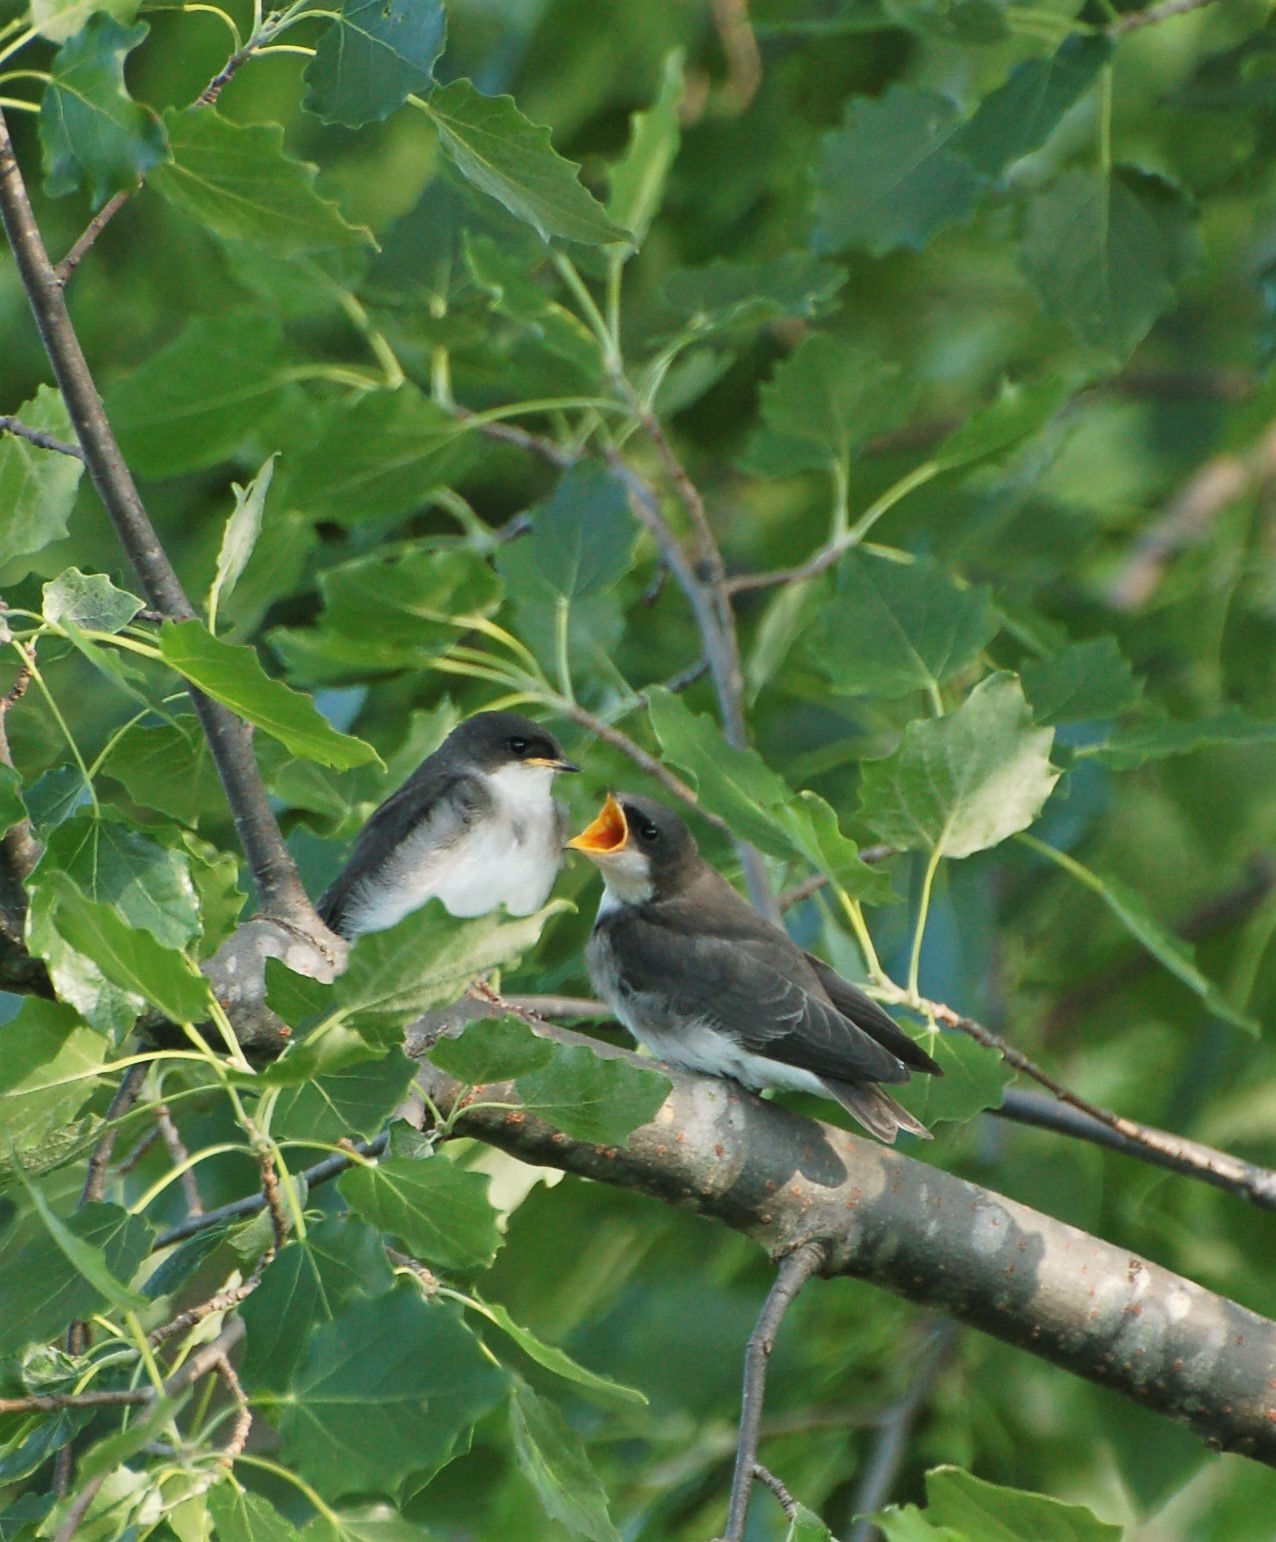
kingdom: Animalia
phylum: Chordata
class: Aves
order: Passeriformes
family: Hirundinidae
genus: Tachycineta
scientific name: Tachycineta bicolor
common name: Tree swallow
